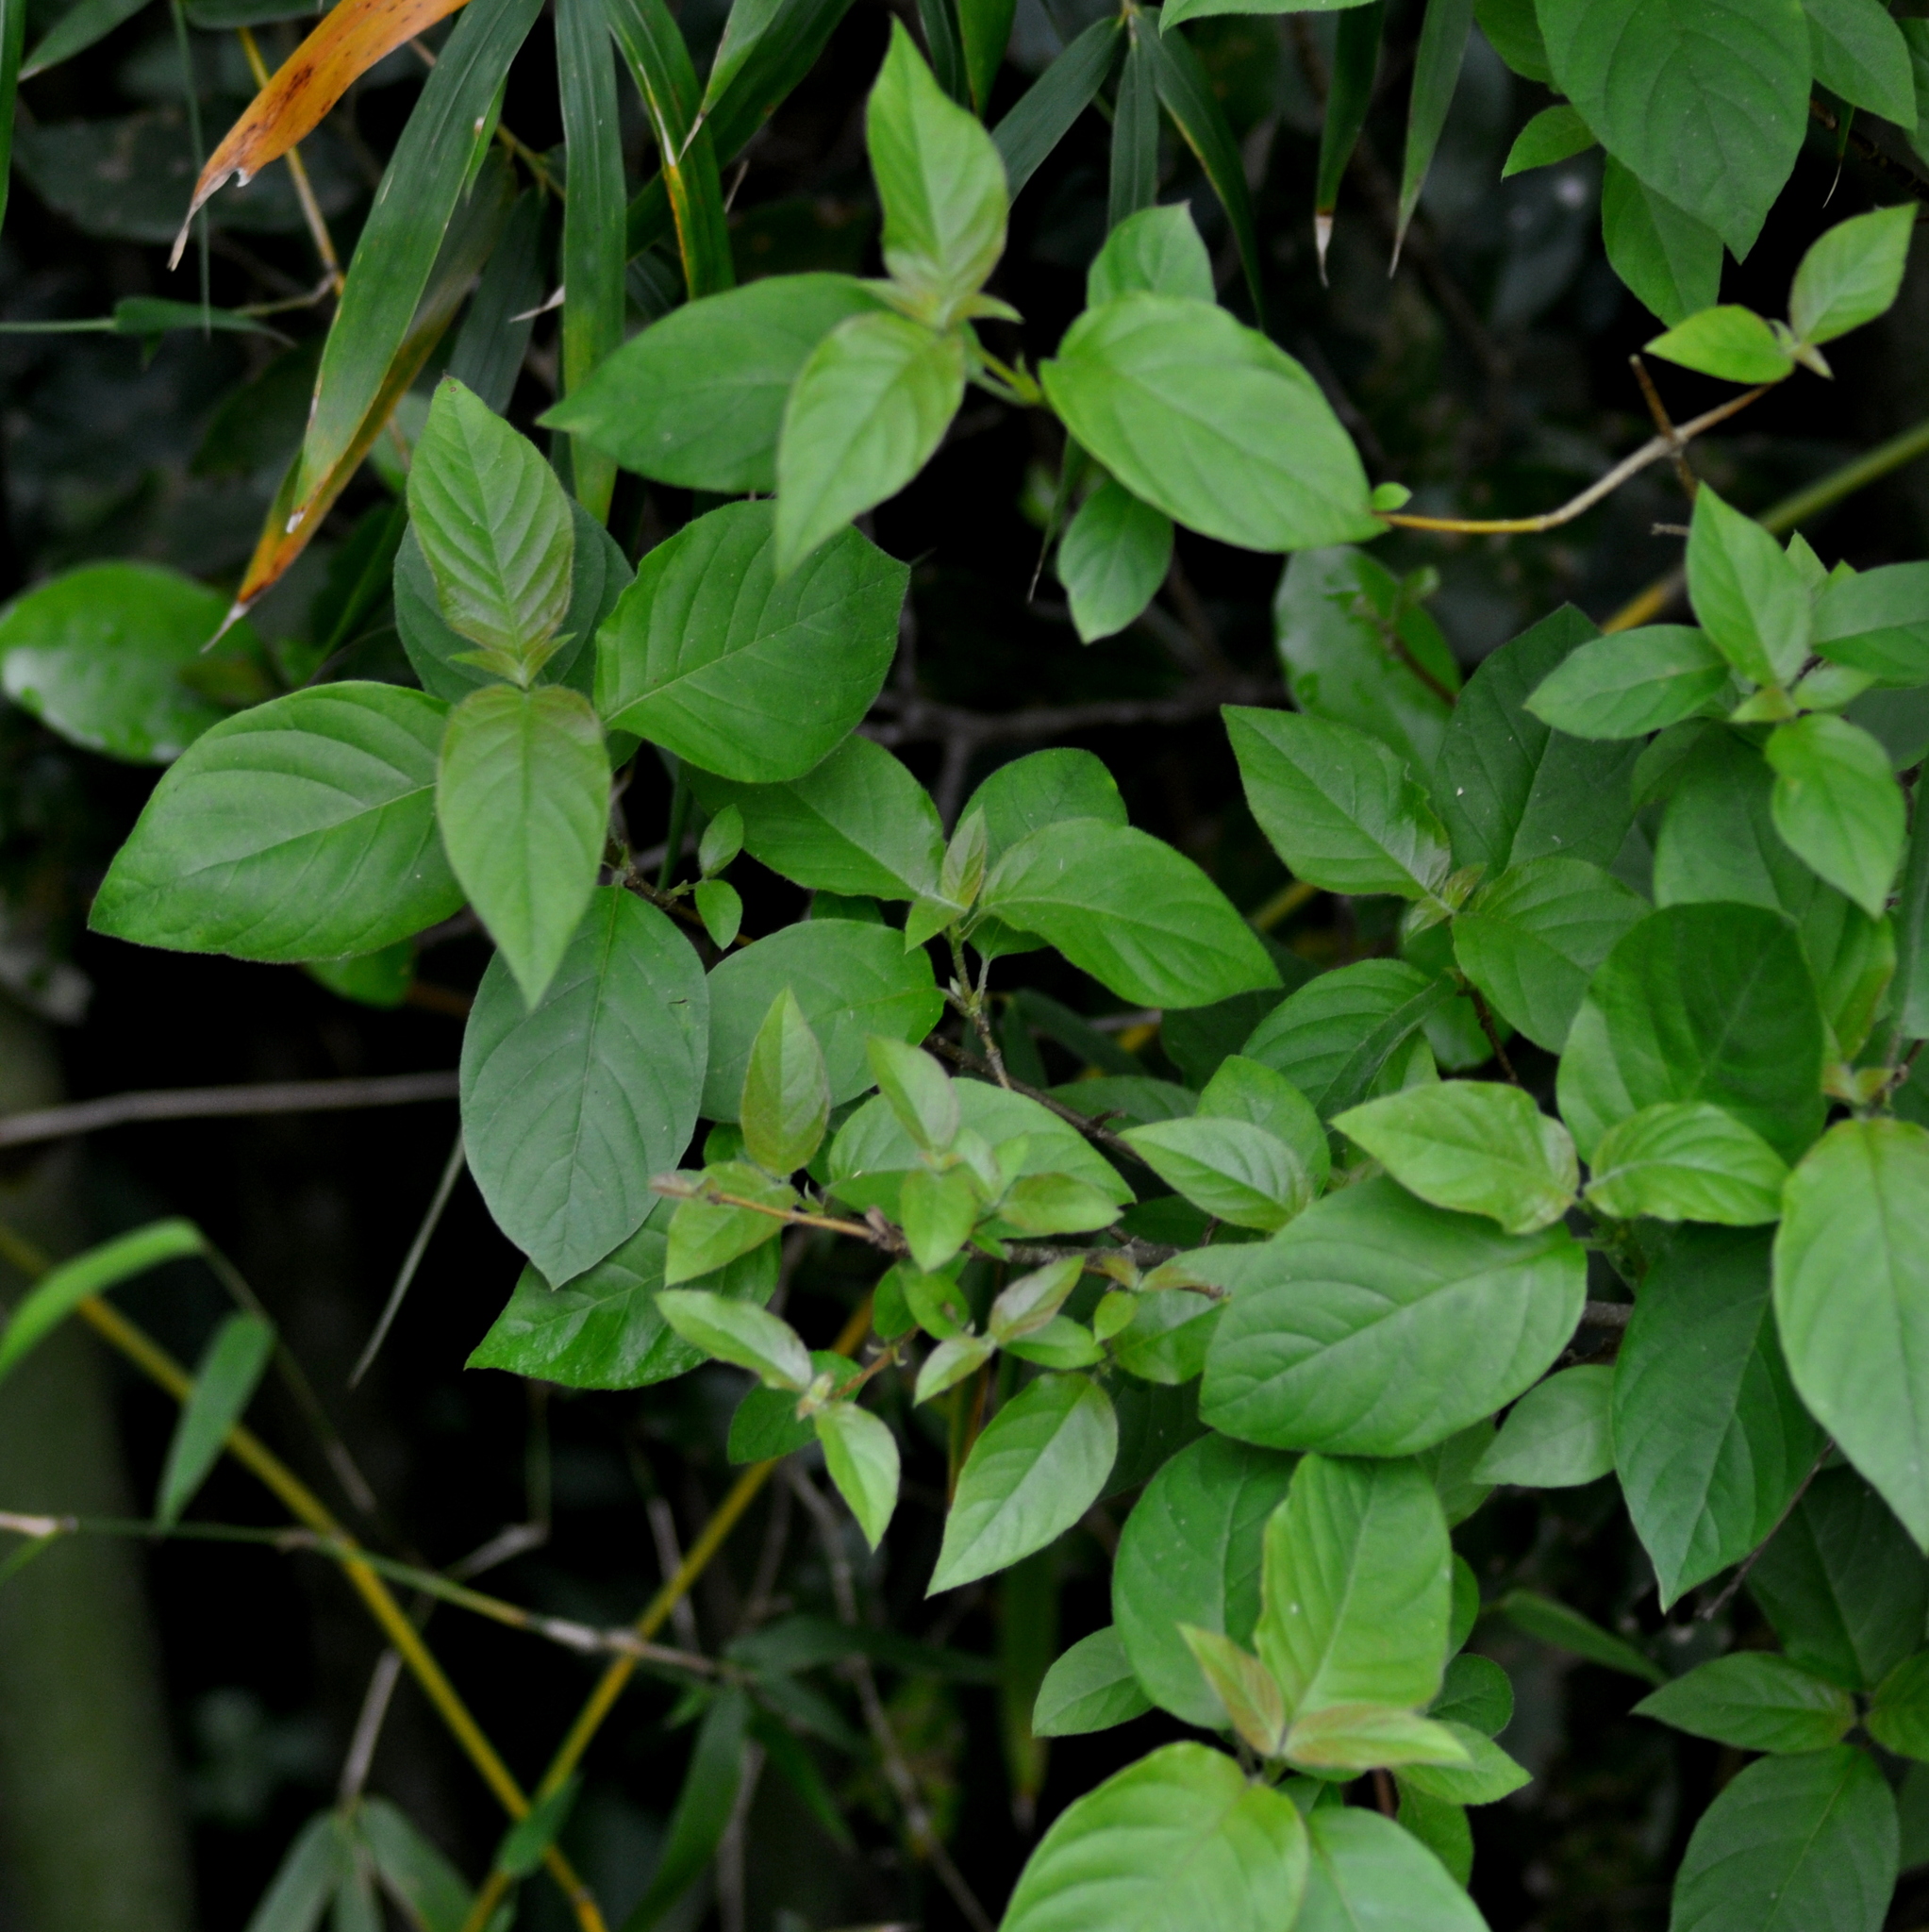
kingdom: Plantae
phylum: Tracheophyta
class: Magnoliopsida
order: Gentianales
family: Rubiaceae
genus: Guettarda
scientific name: Guettarda uruguensis
